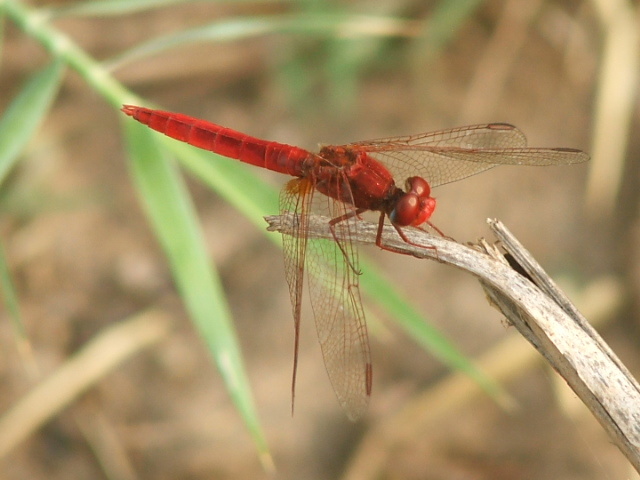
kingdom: Animalia
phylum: Arthropoda
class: Insecta
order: Odonata
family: Libellulidae
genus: Crocothemis
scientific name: Crocothemis erythraea
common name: Scarlet dragonfly
